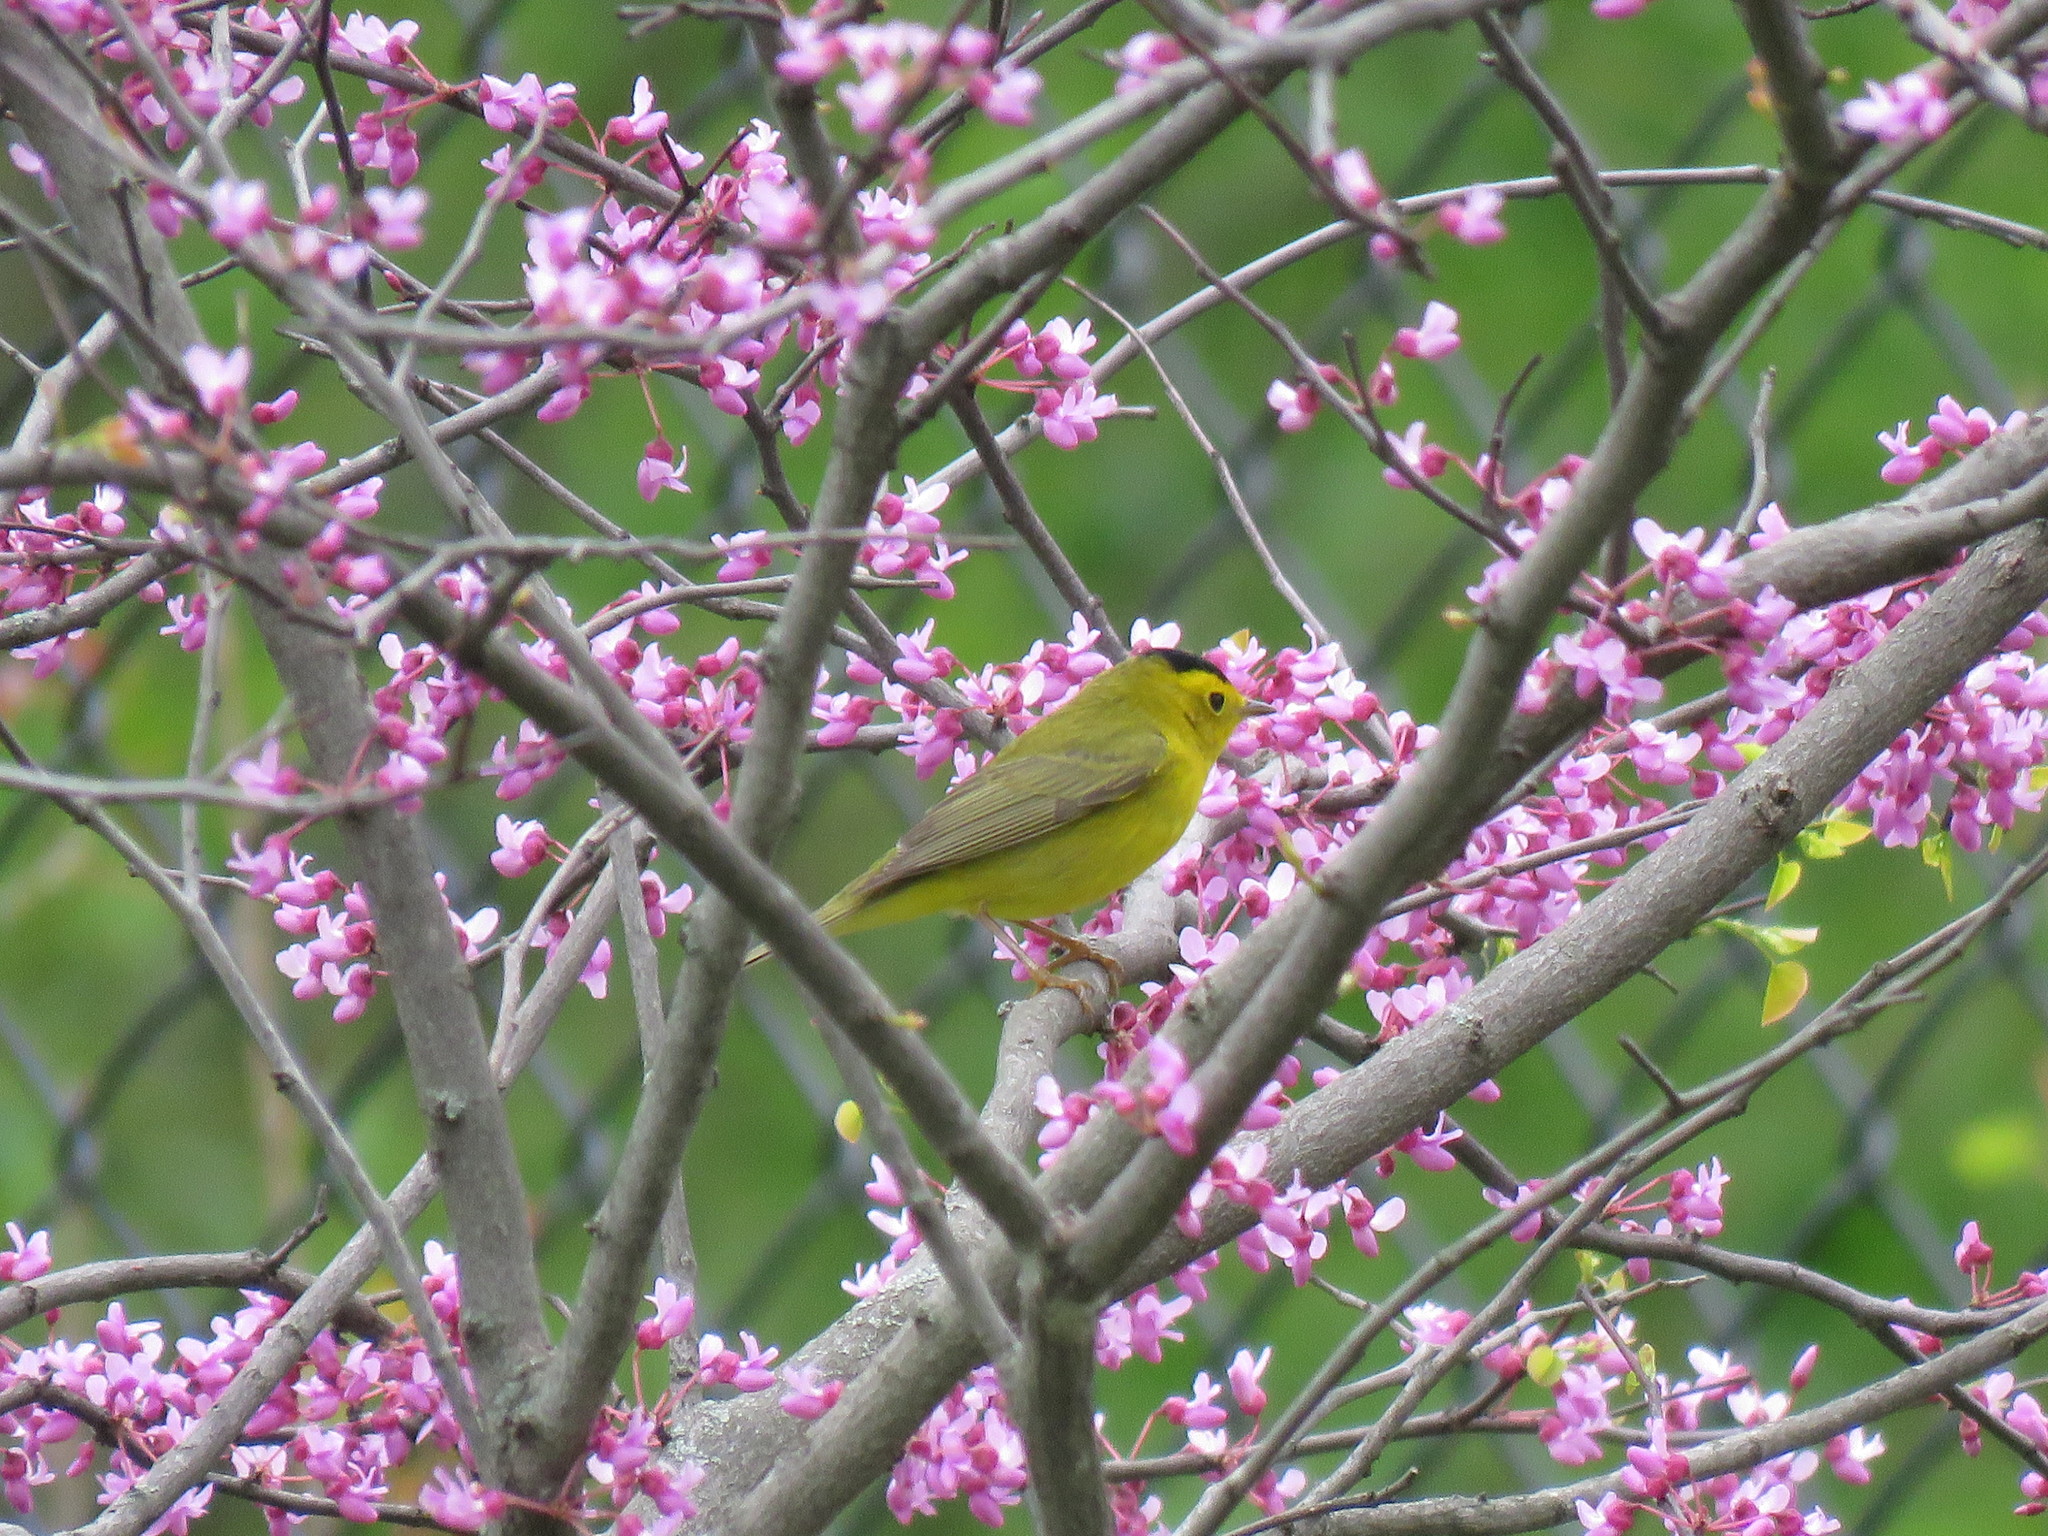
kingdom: Animalia
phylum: Chordata
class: Aves
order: Passeriformes
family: Parulidae
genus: Cardellina
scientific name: Cardellina pusilla
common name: Wilson's warbler
